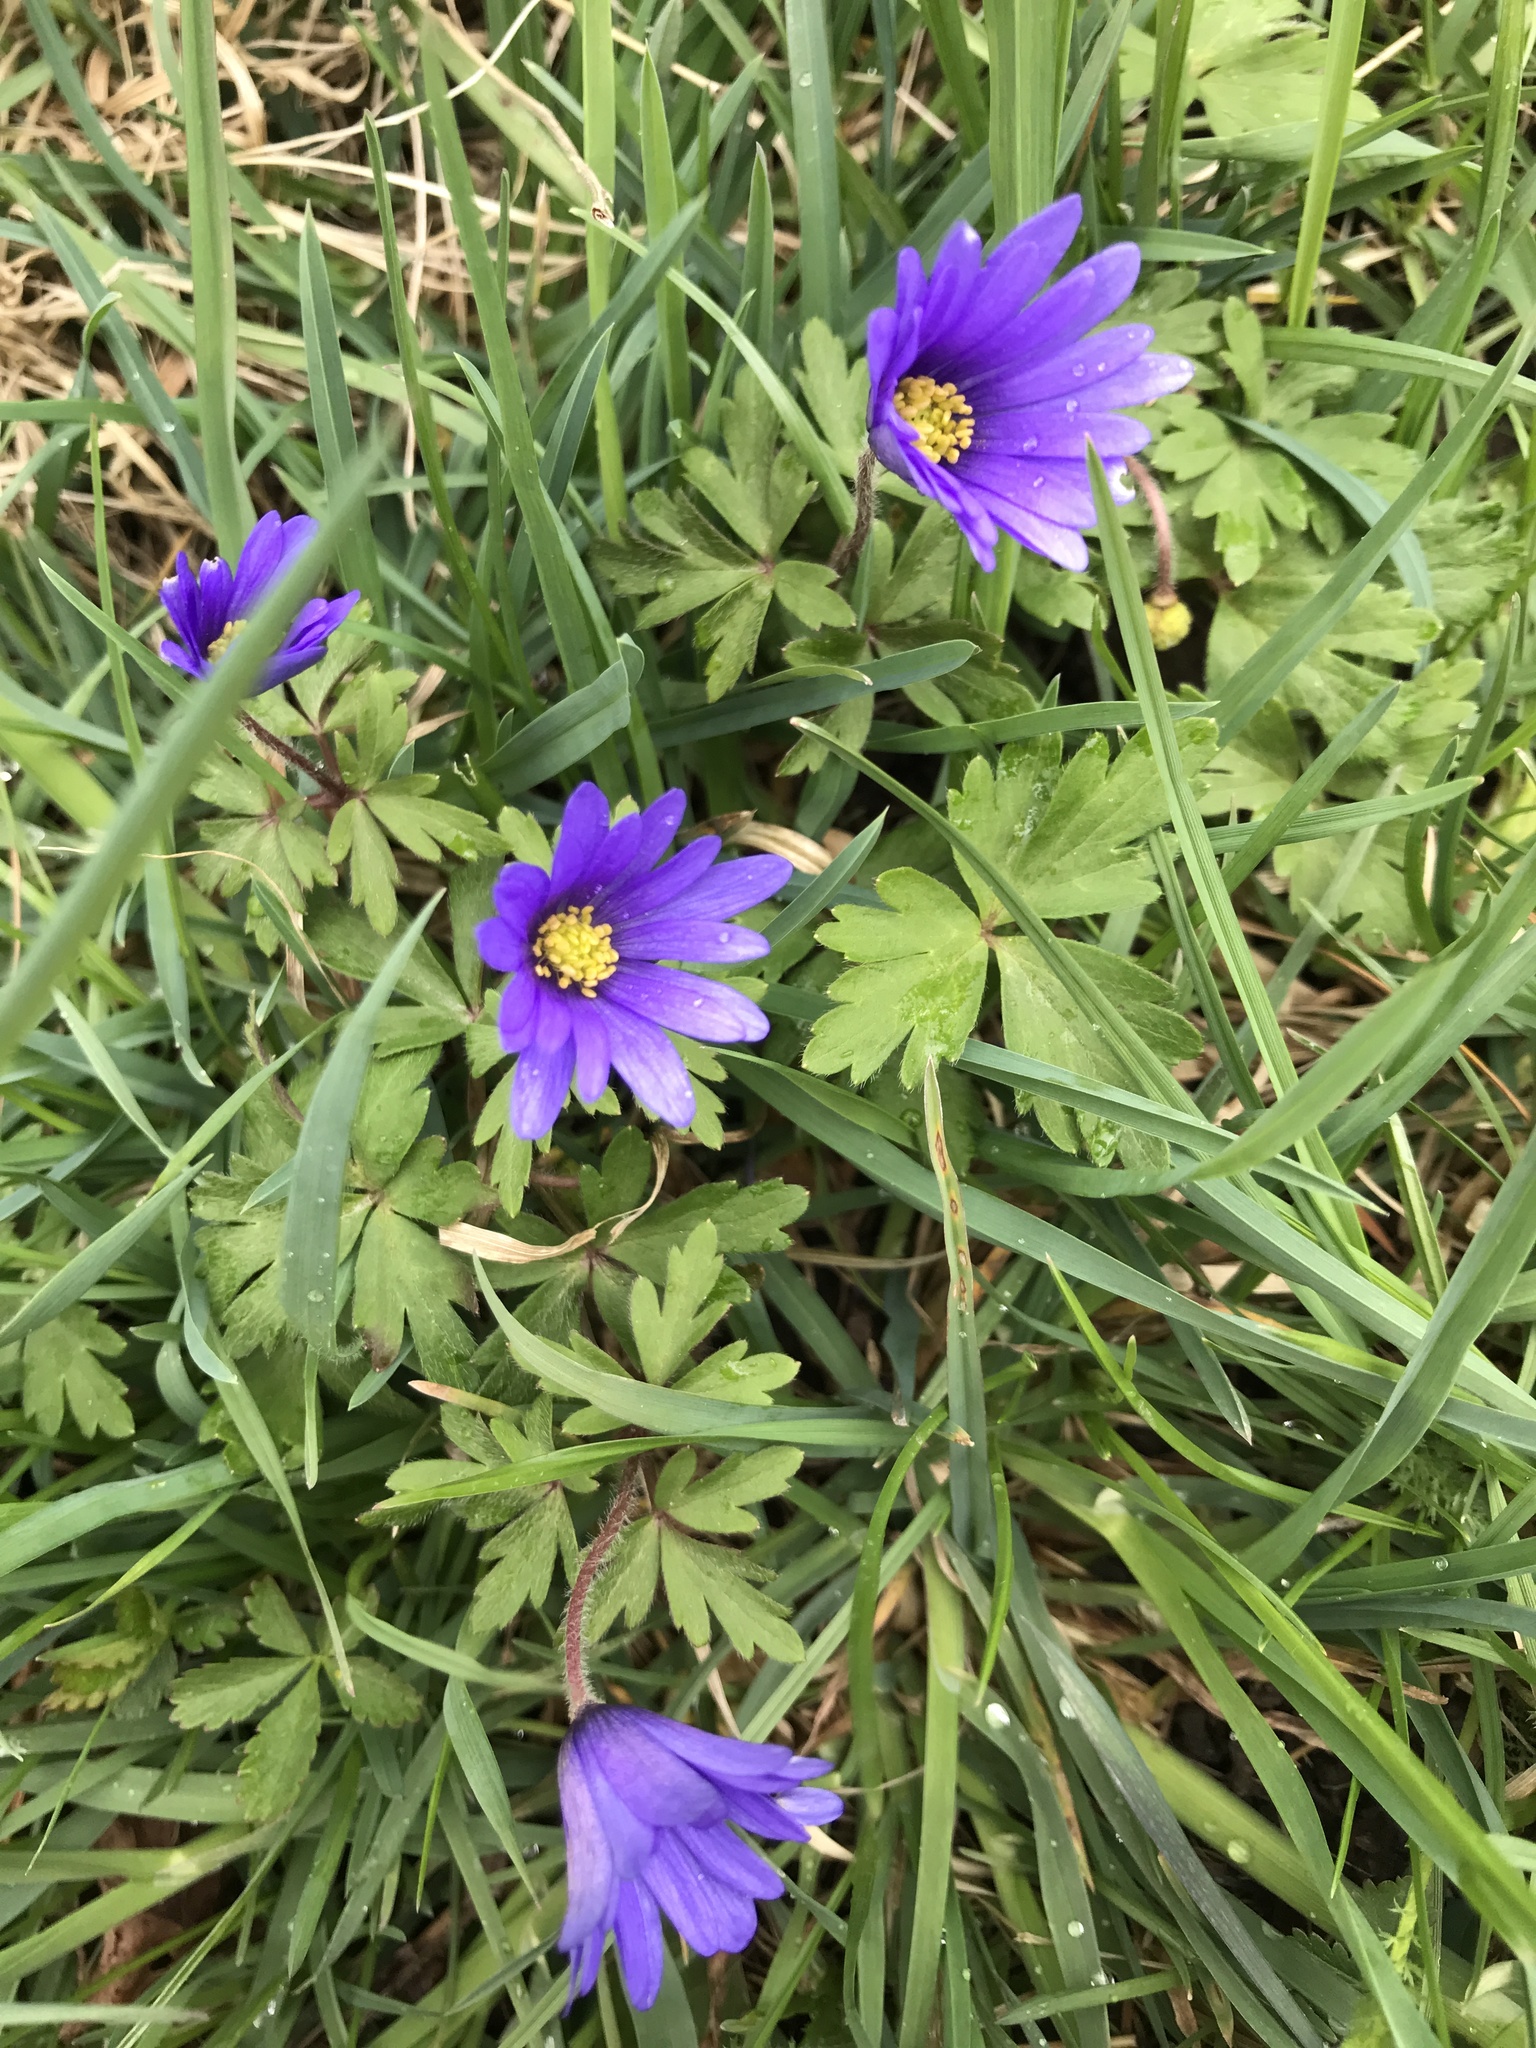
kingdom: Plantae
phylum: Tracheophyta
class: Magnoliopsida
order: Ranunculales
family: Ranunculaceae
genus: Anemone
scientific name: Anemone blanda
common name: Balkan anemone
